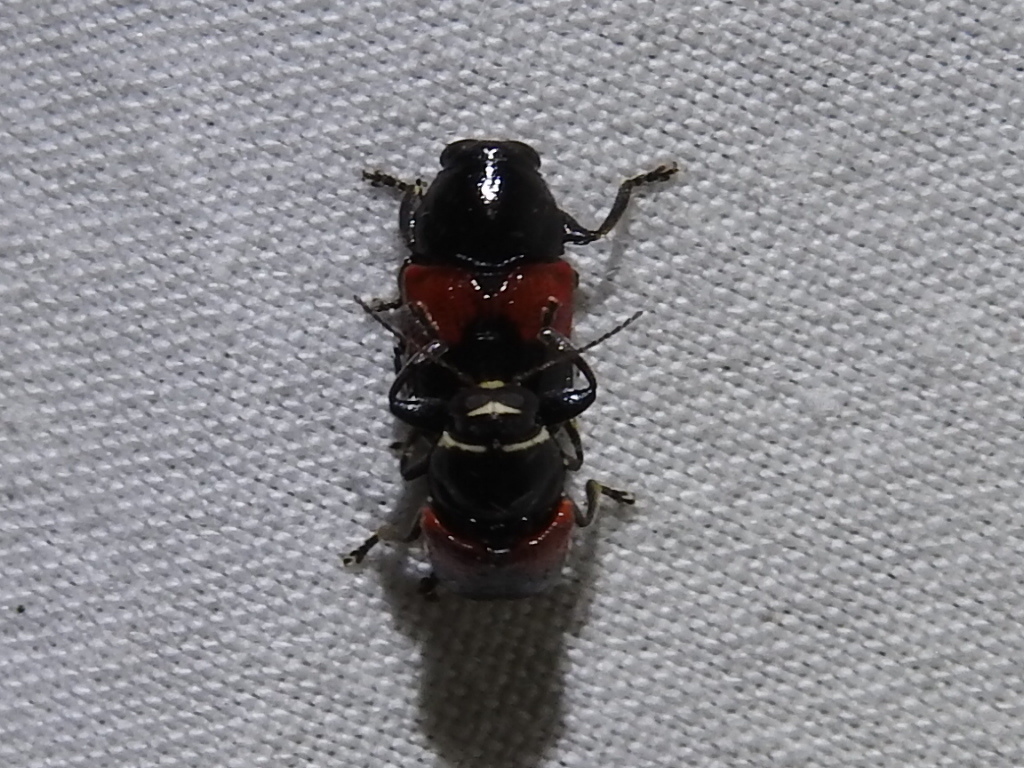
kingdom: Animalia
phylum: Arthropoda
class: Insecta
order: Coleoptera
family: Chrysomelidae
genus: Scelolyperus
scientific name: Scelolyperus lecontii
